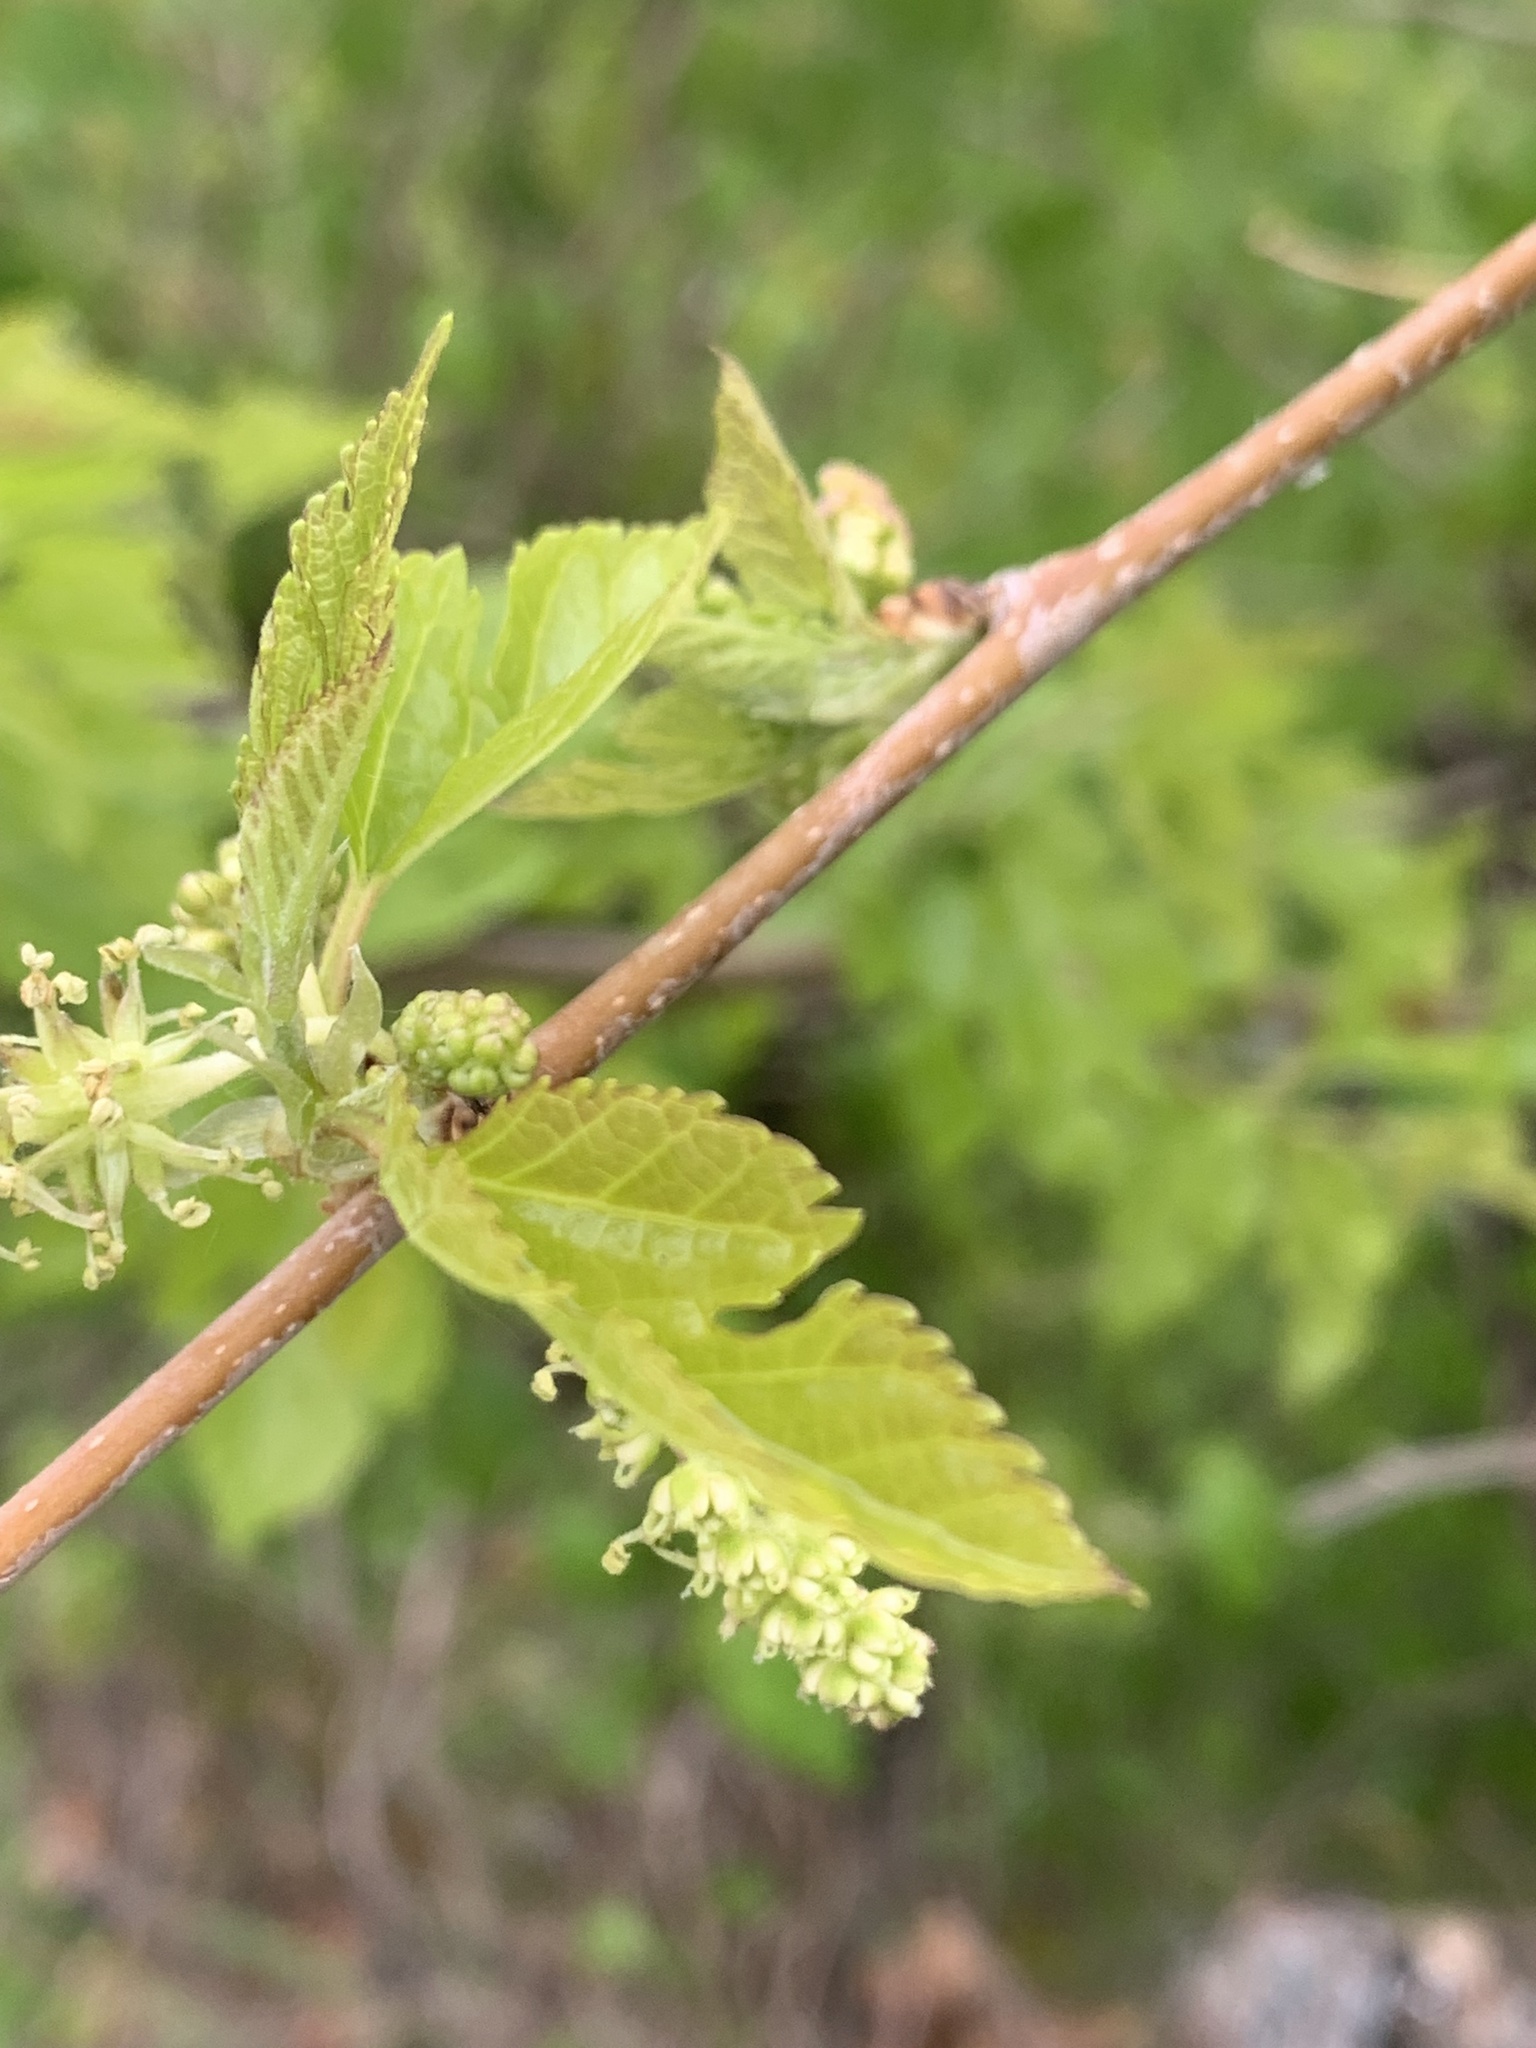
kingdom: Plantae
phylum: Tracheophyta
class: Magnoliopsida
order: Rosales
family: Moraceae
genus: Morus
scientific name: Morus alba
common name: White mulberry
